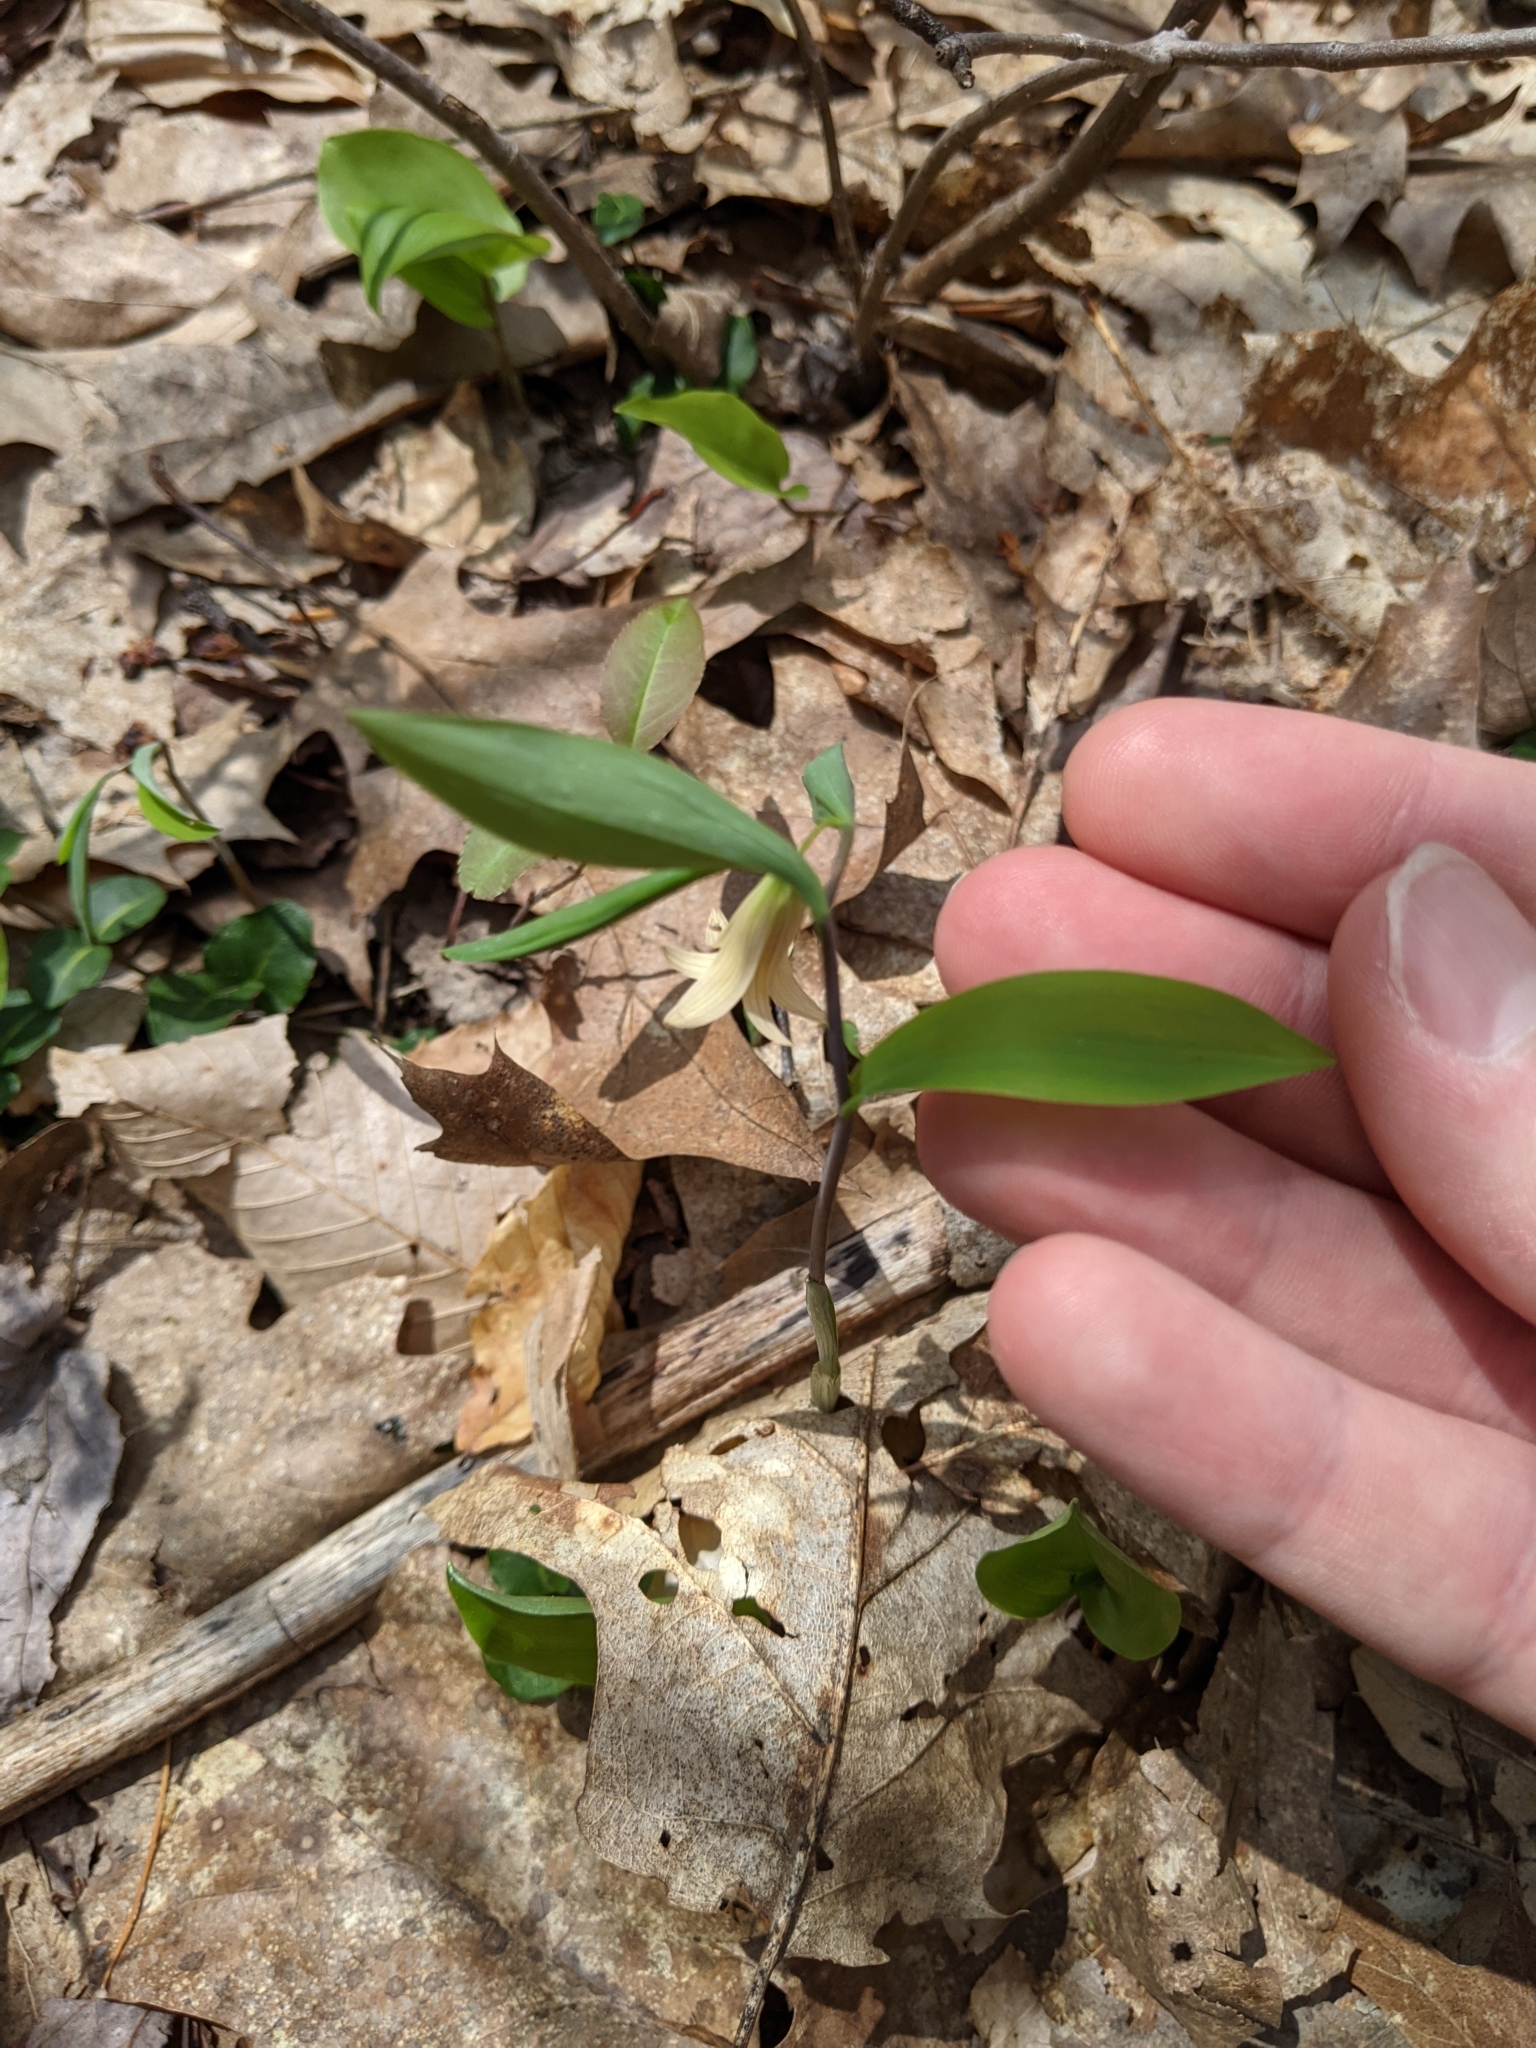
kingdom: Plantae
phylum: Tracheophyta
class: Liliopsida
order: Liliales
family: Colchicaceae
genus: Uvularia
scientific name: Uvularia sessilifolia
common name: Straw-lily
